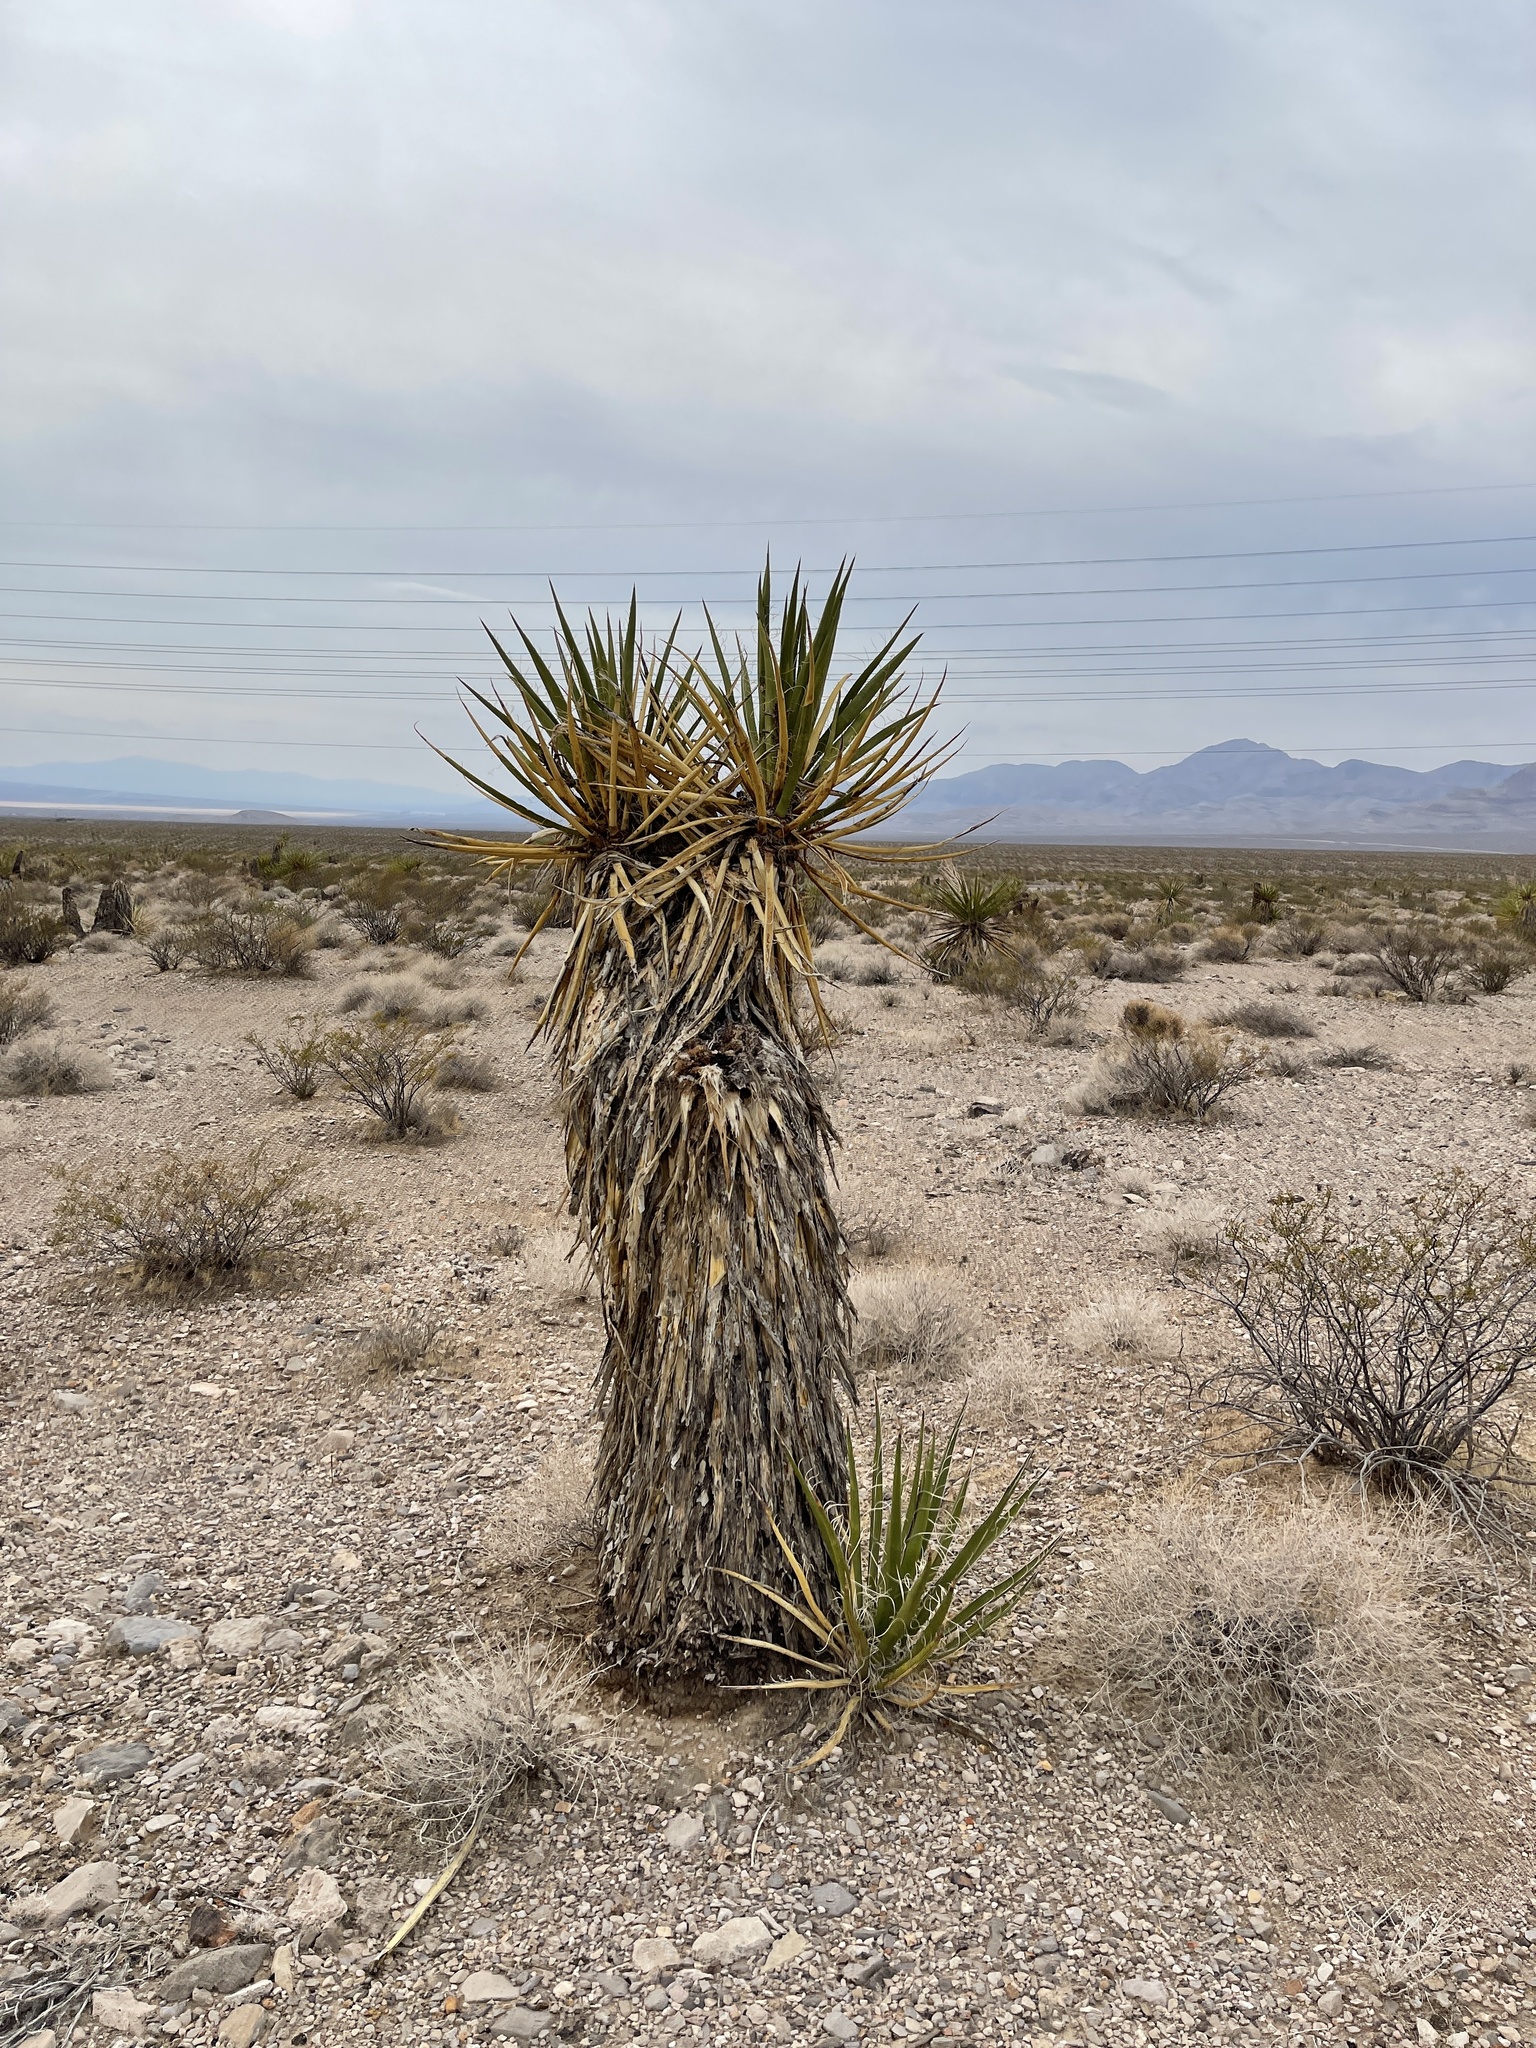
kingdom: Plantae
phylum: Tracheophyta
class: Liliopsida
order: Asparagales
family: Asparagaceae
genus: Yucca
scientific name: Yucca schidigera
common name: Mojave yucca
